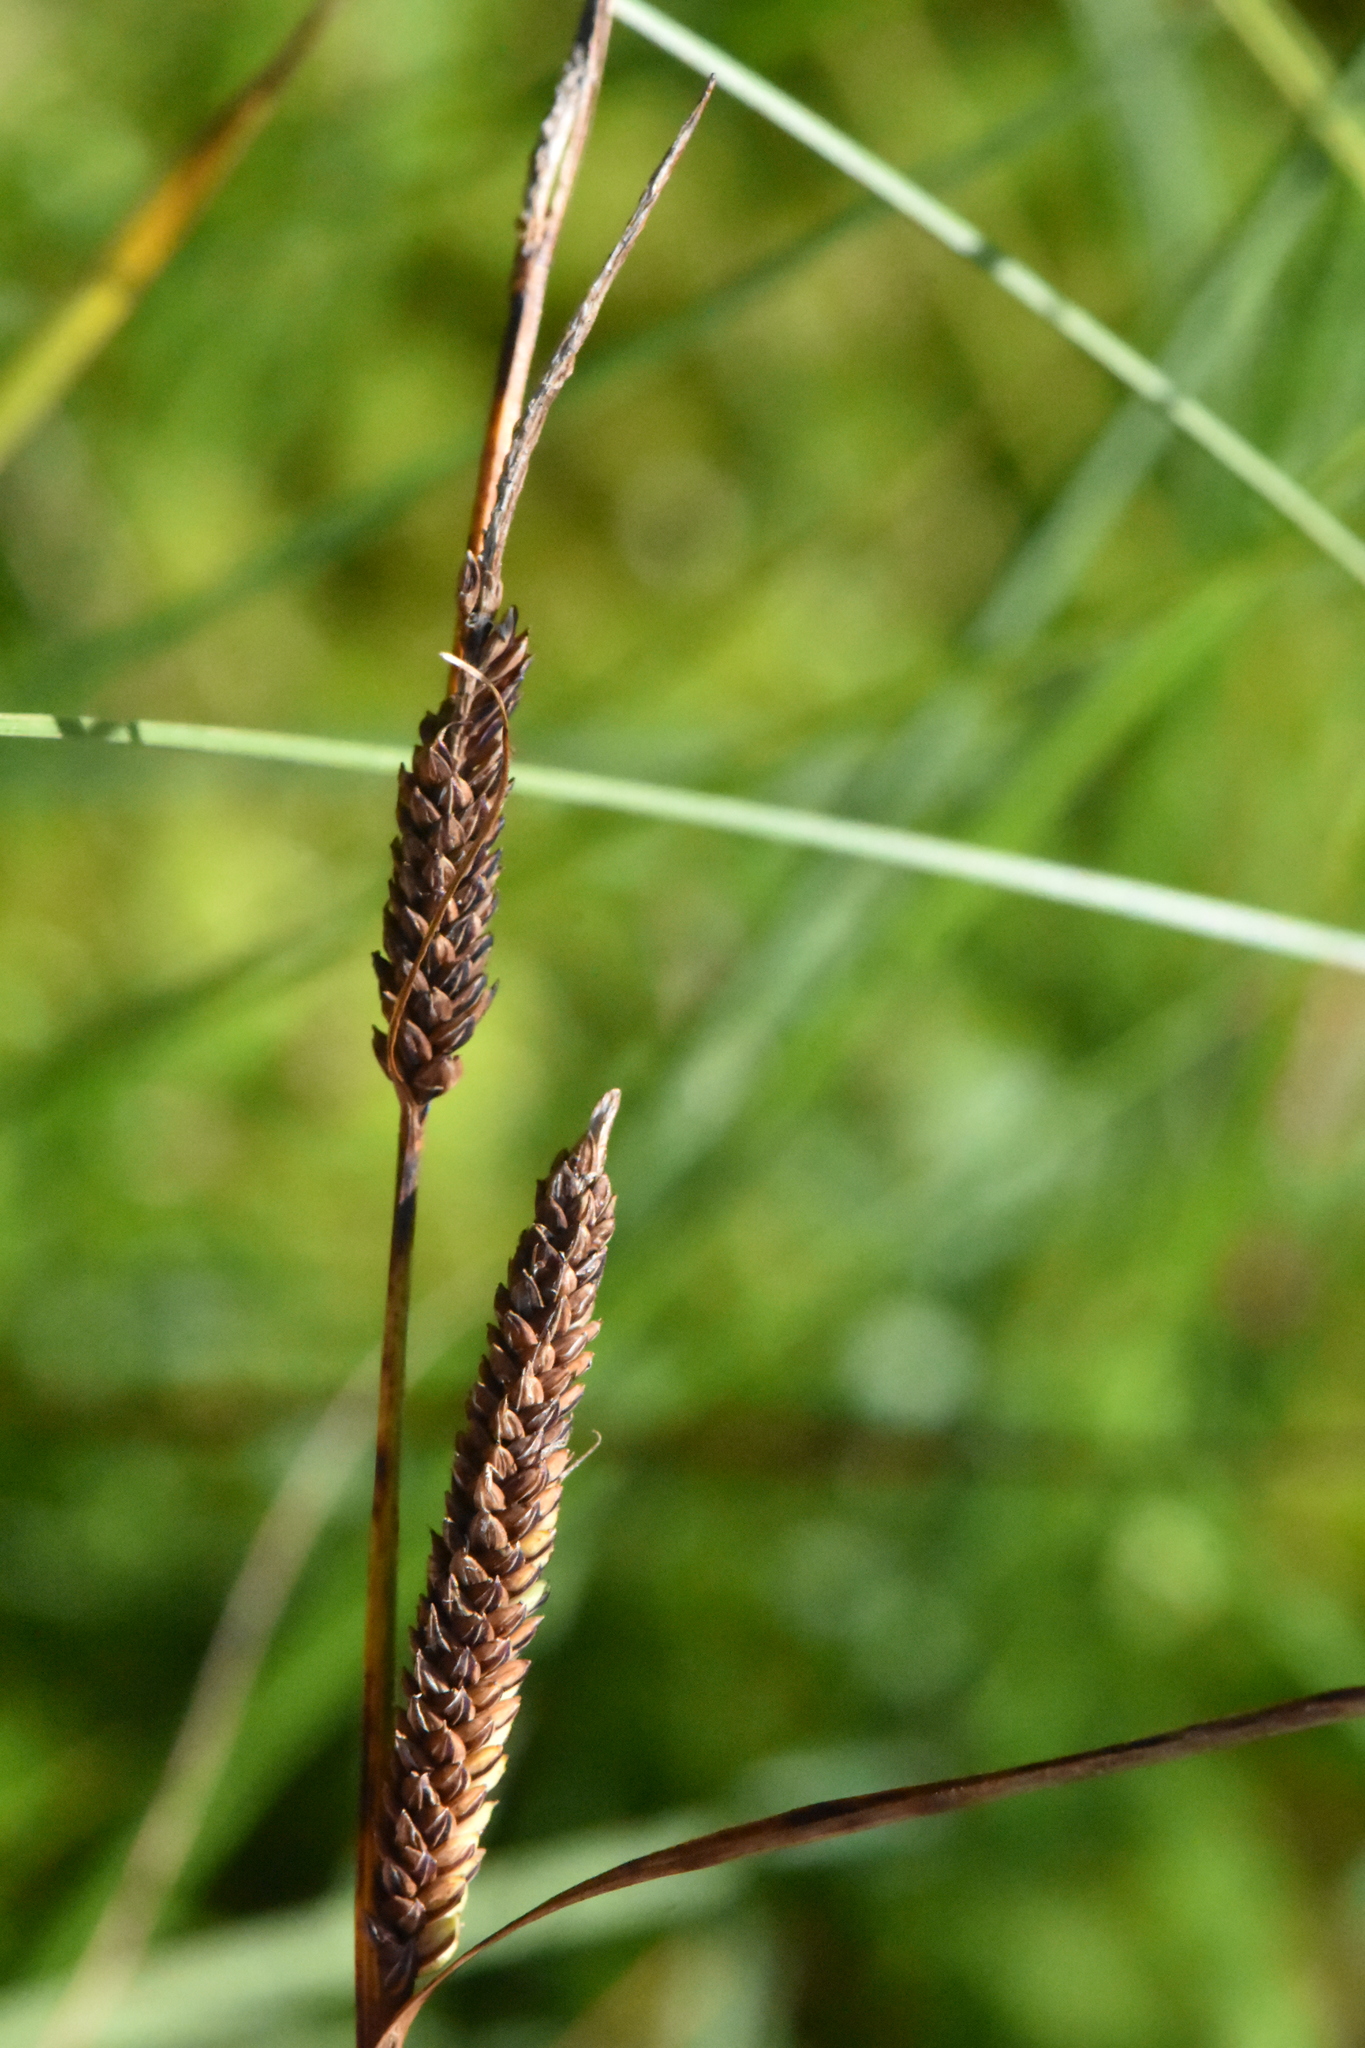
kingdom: Plantae
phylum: Tracheophyta
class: Liliopsida
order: Poales
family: Cyperaceae
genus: Carex
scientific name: Carex nigra
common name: Common sedge
